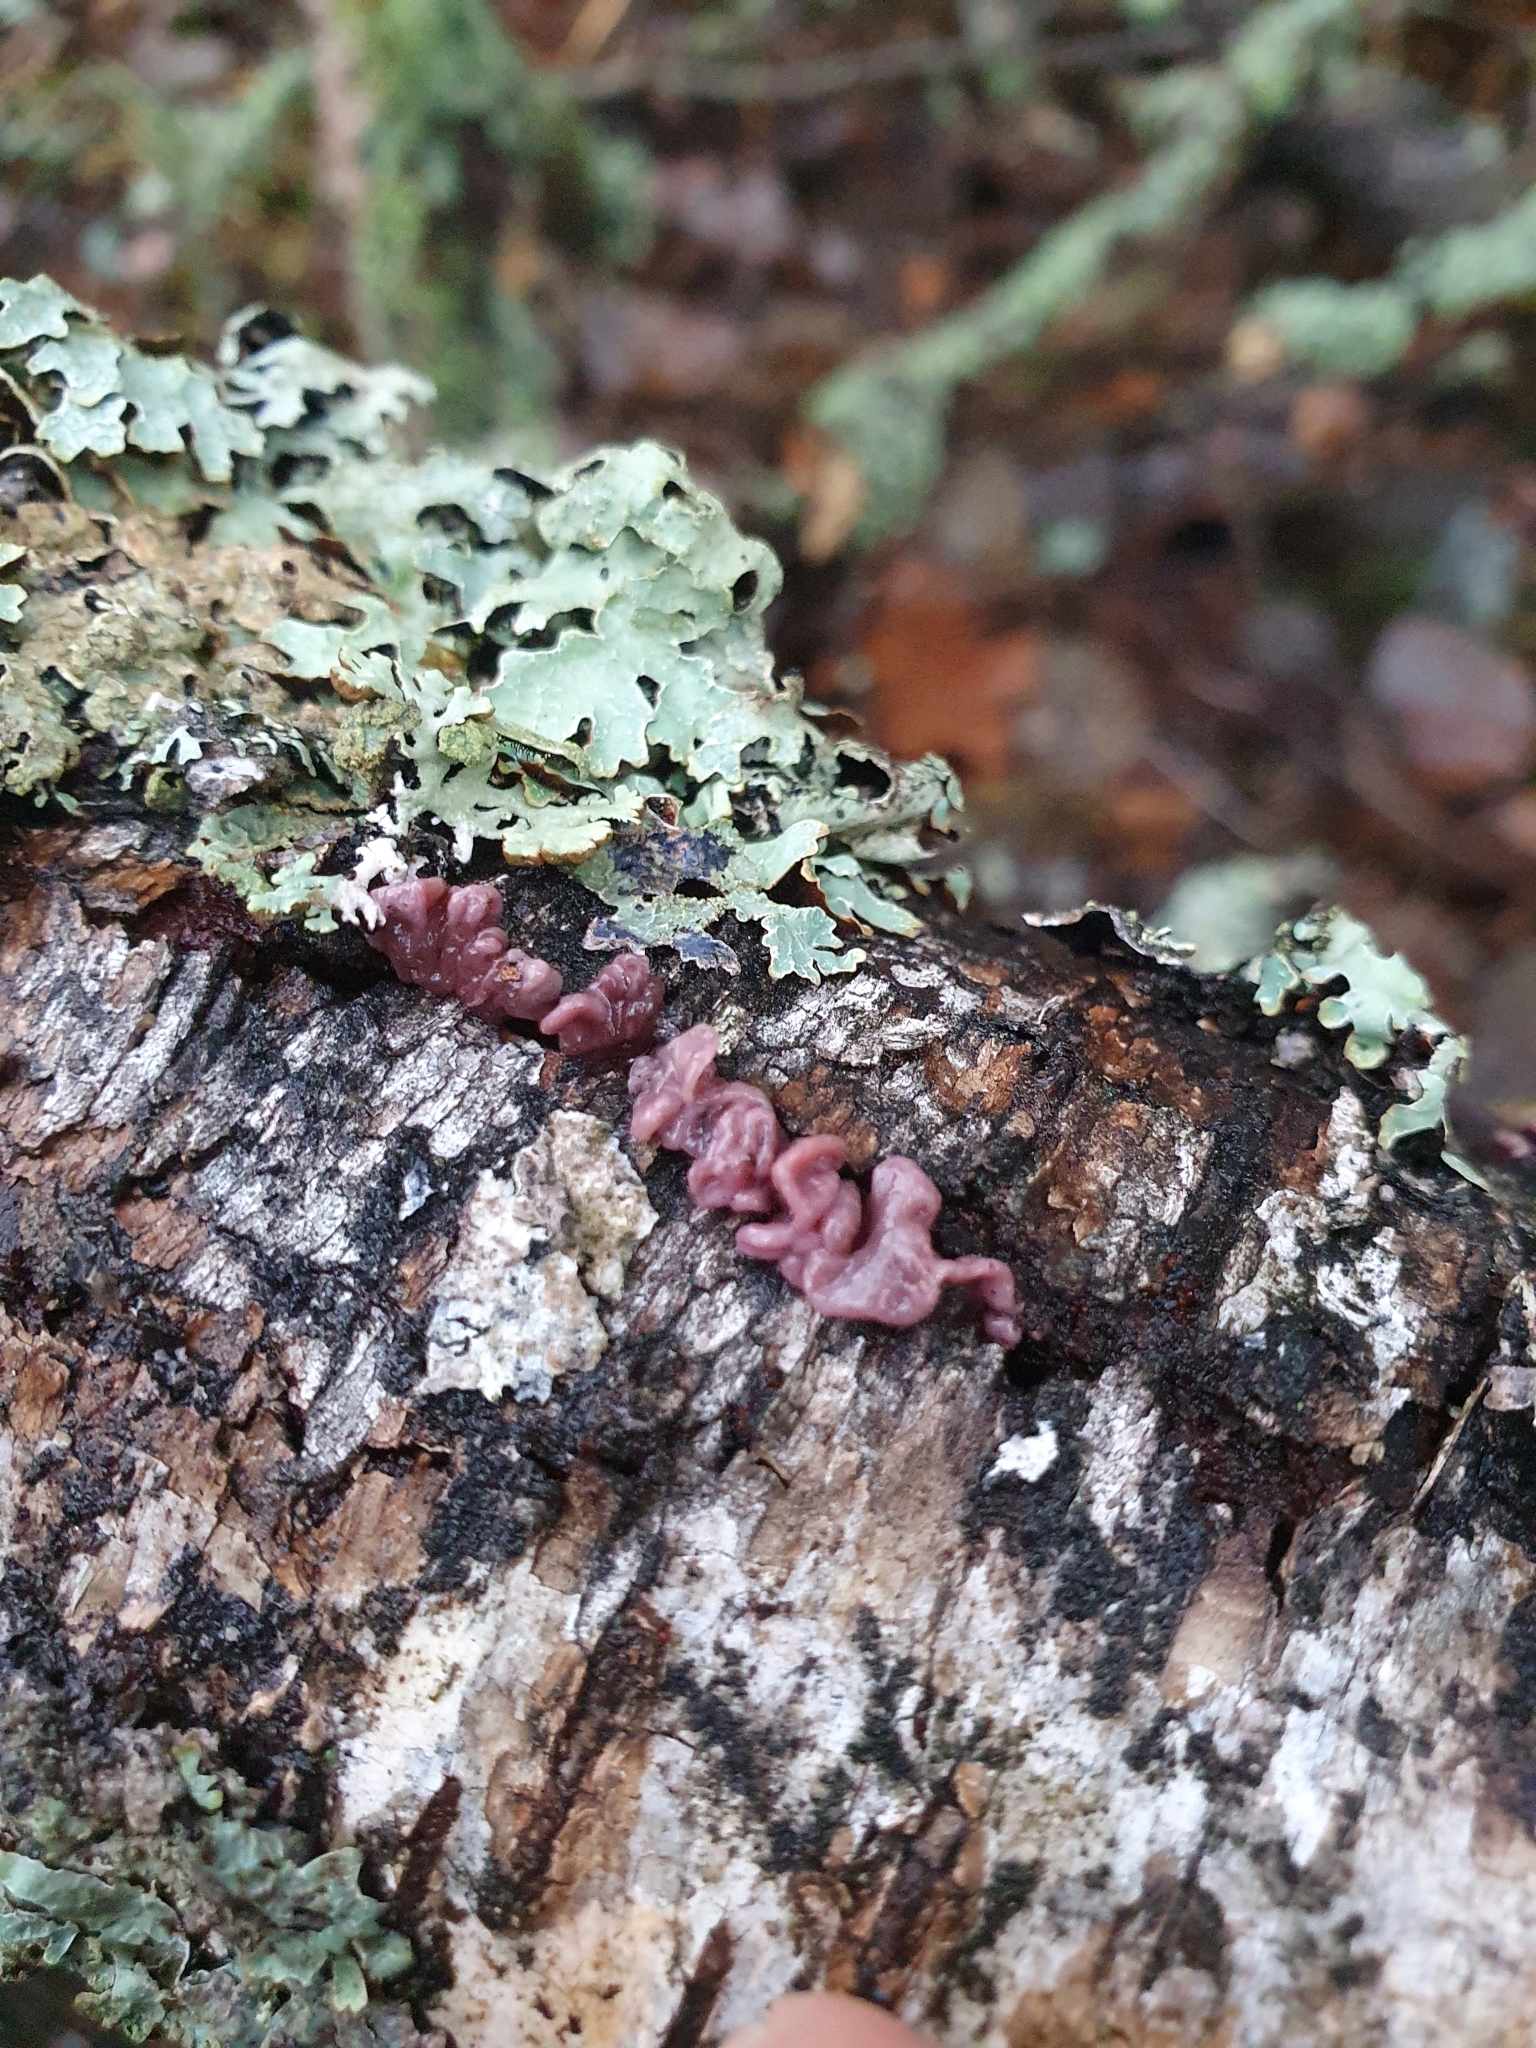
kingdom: Fungi
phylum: Ascomycota
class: Leotiomycetes
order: Helotiales
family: Gelatinodiscaceae
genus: Ascocoryne
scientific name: Ascocoryne sarcoides
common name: Purple jellydisc
